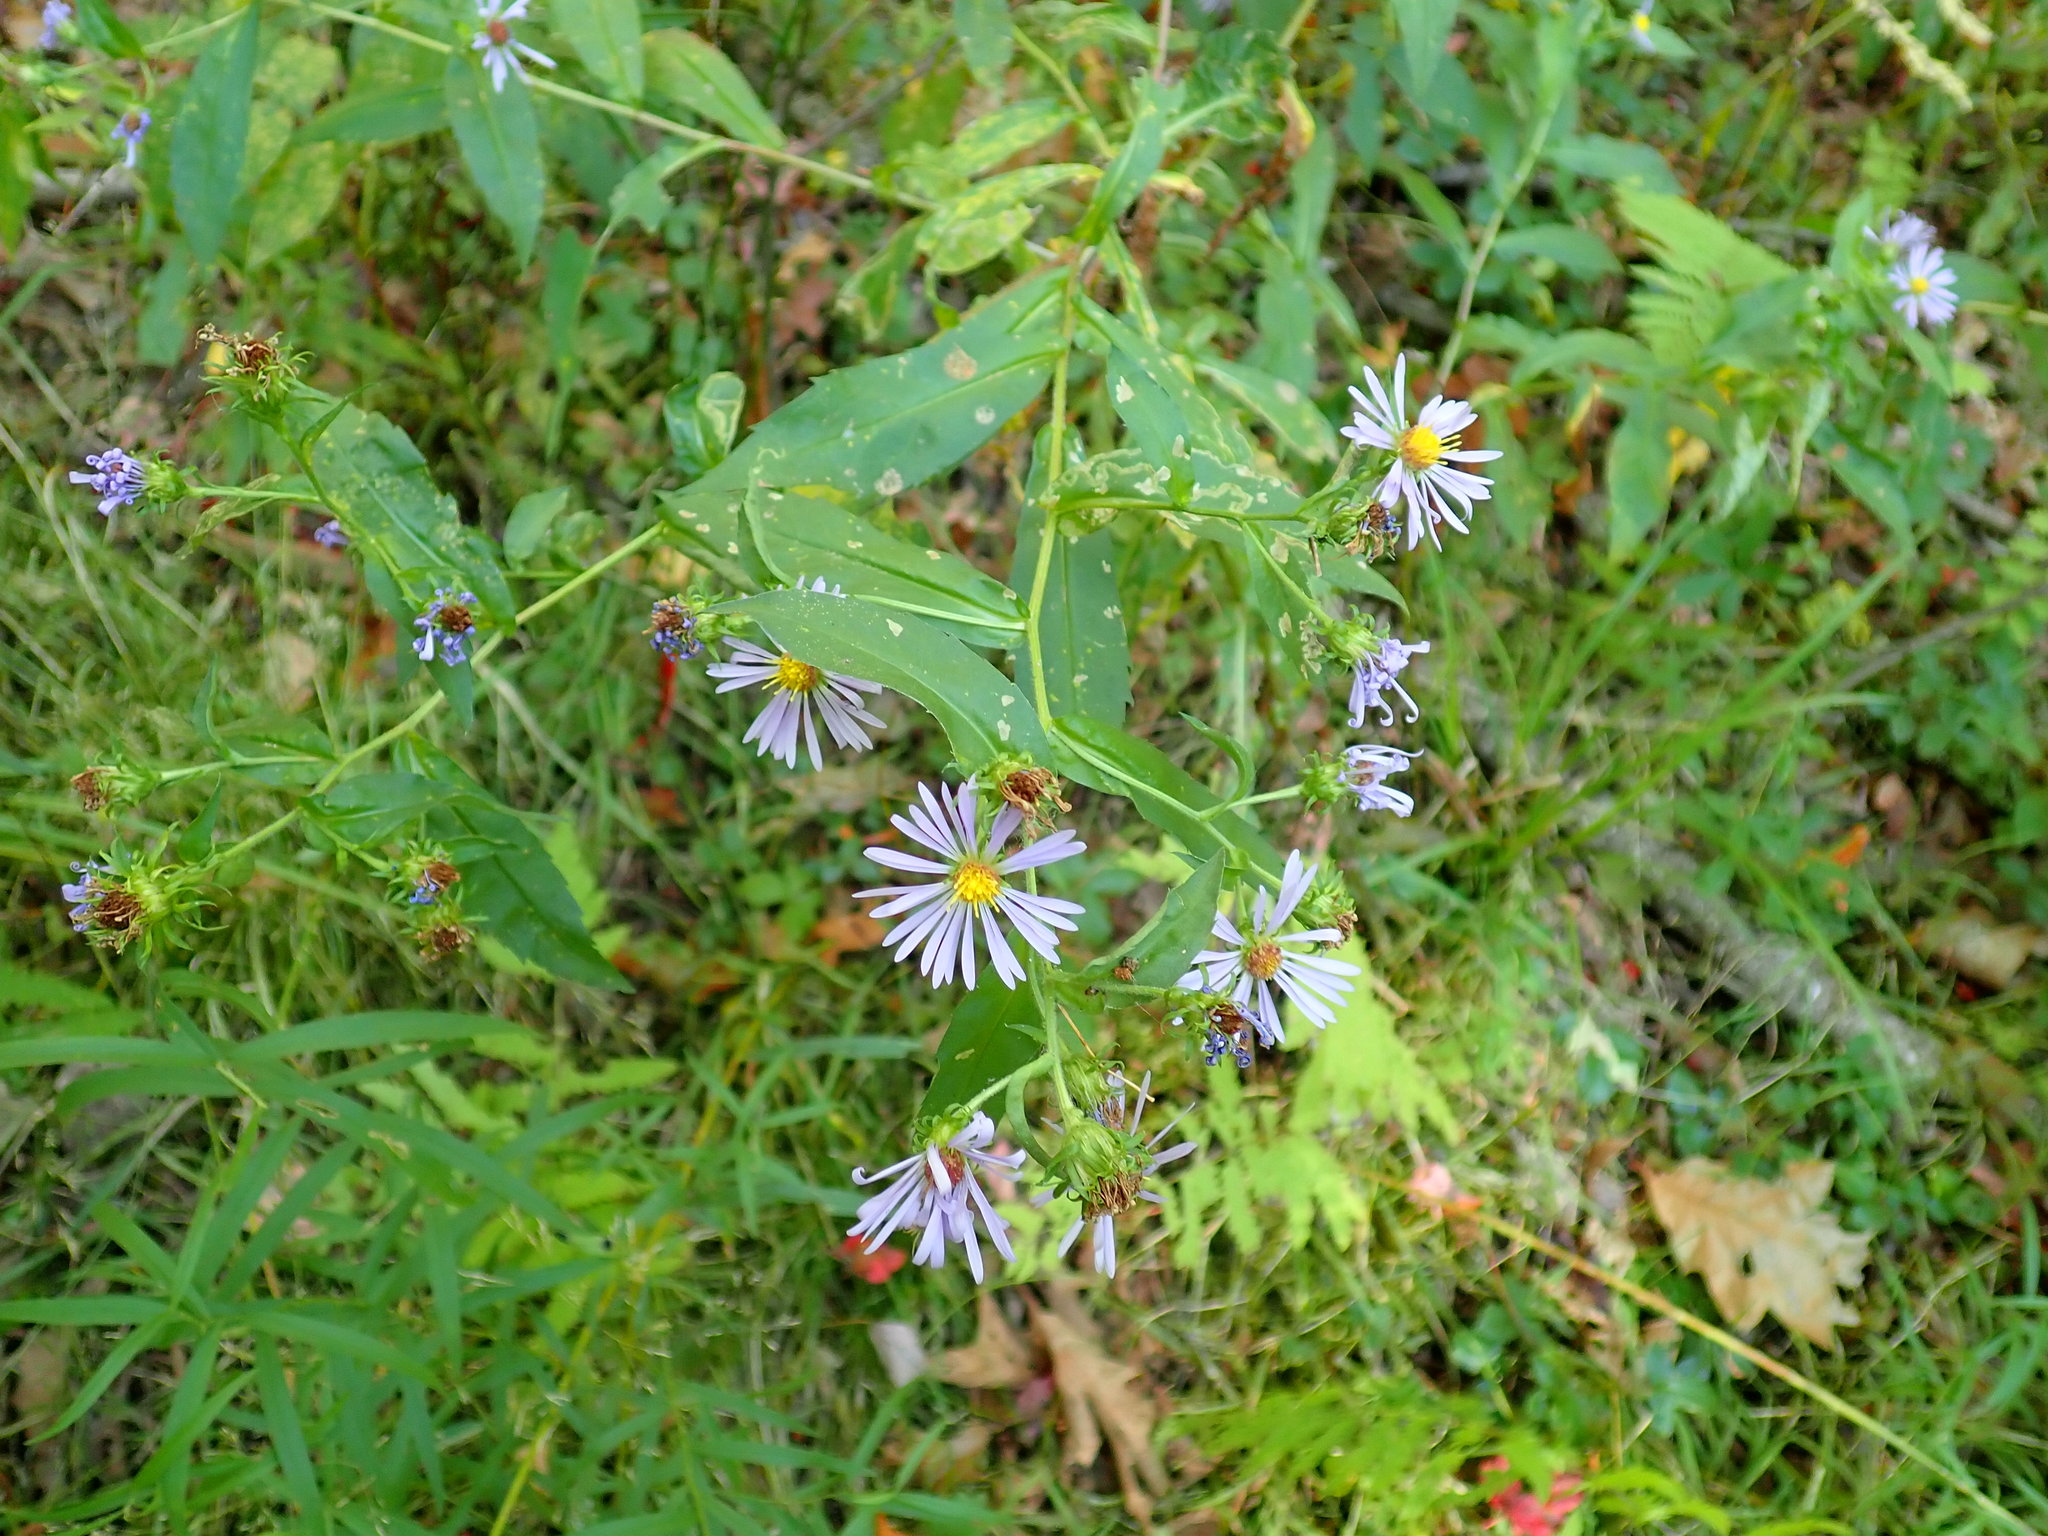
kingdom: Plantae
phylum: Tracheophyta
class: Magnoliopsida
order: Asterales
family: Asteraceae
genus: Symphyotrichum
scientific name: Symphyotrichum novi-belgii
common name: Michaelmas daisy
